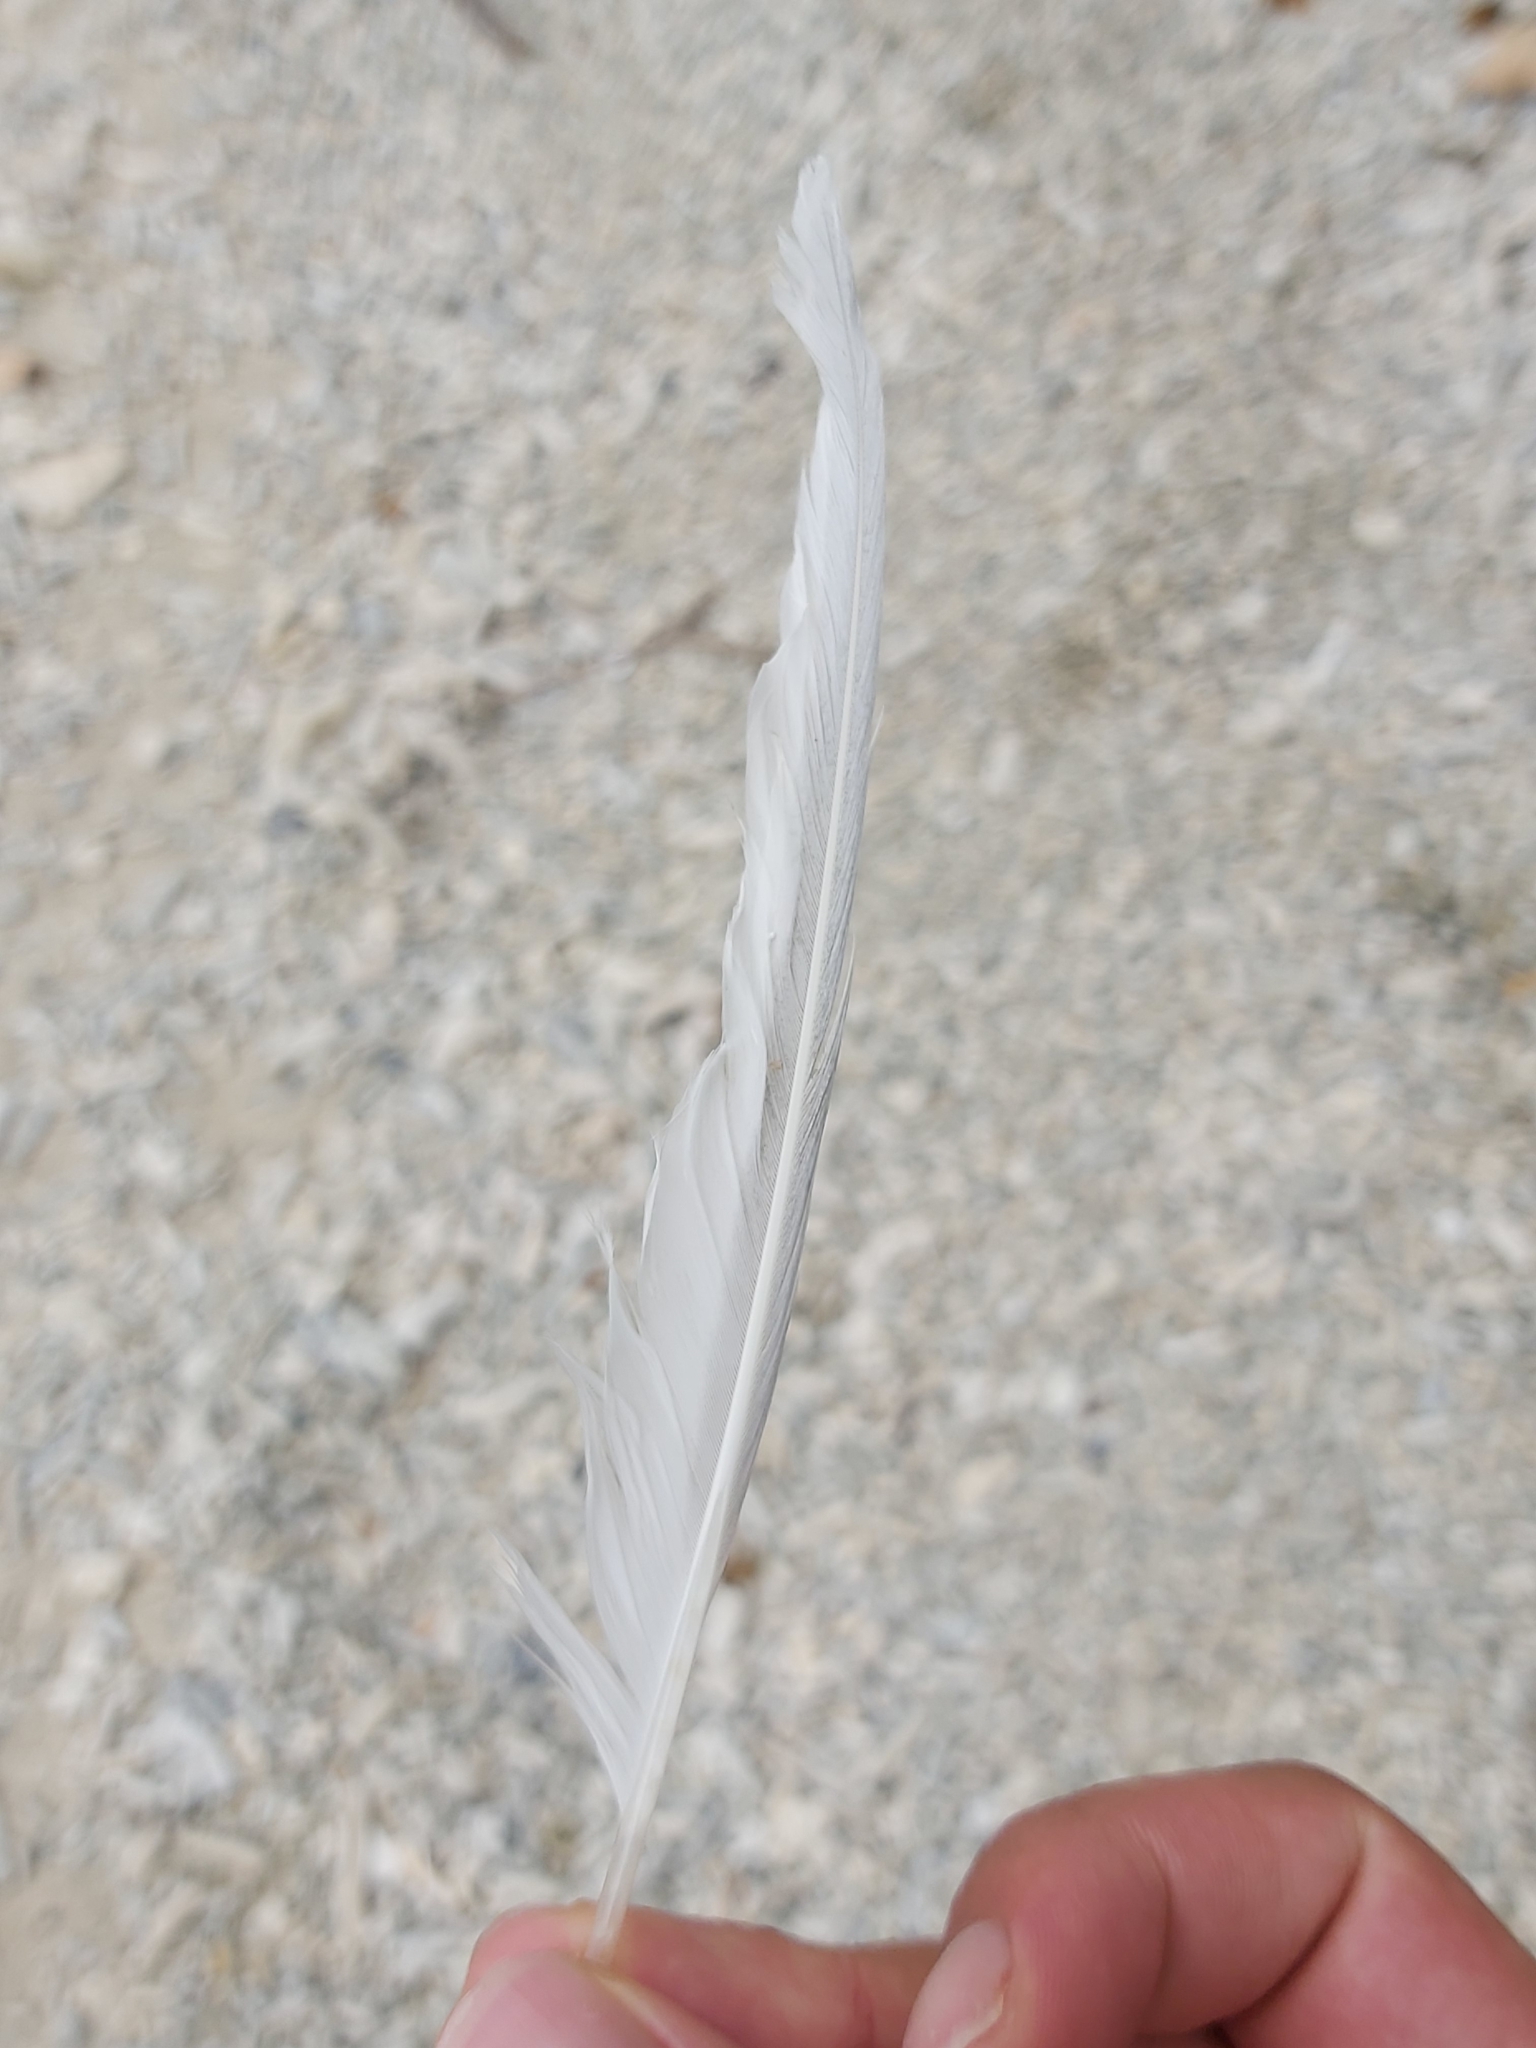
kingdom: Animalia
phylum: Chordata
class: Aves
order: Charadriiformes
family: Laridae
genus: Sterna
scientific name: Sterna sumatrana
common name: Black-naped tern
